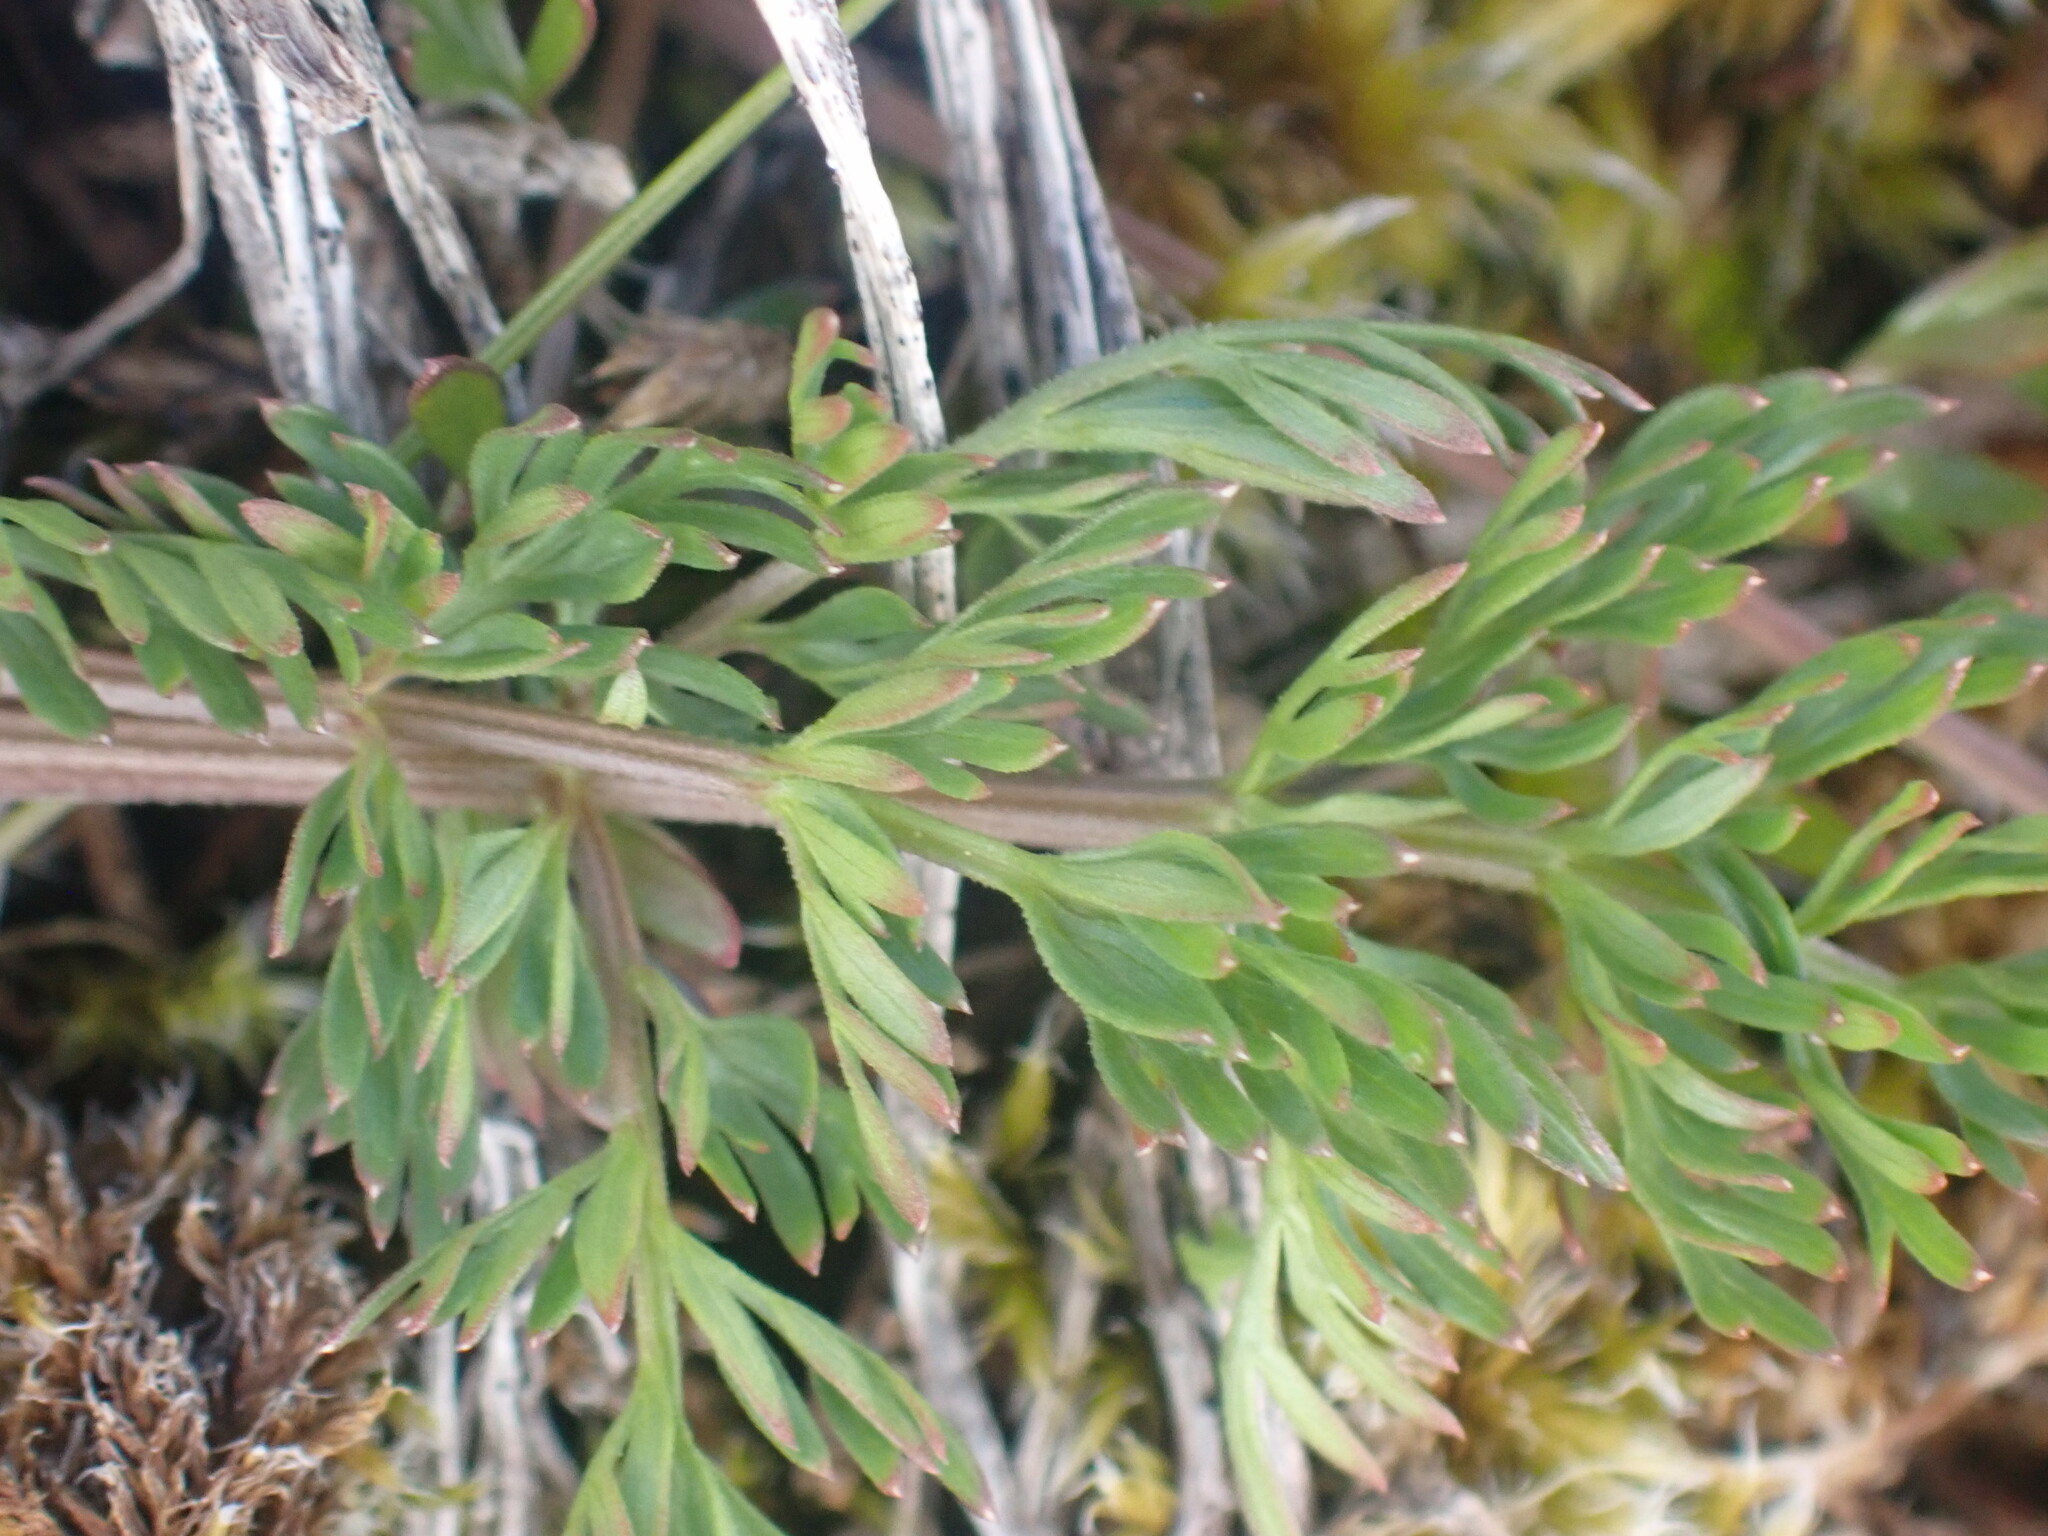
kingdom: Plantae
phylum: Tracheophyta
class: Magnoliopsida
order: Apiales
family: Apiaceae
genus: Lomatium
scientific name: Lomatium utriculatum
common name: Fine-leaf desert-parsley
